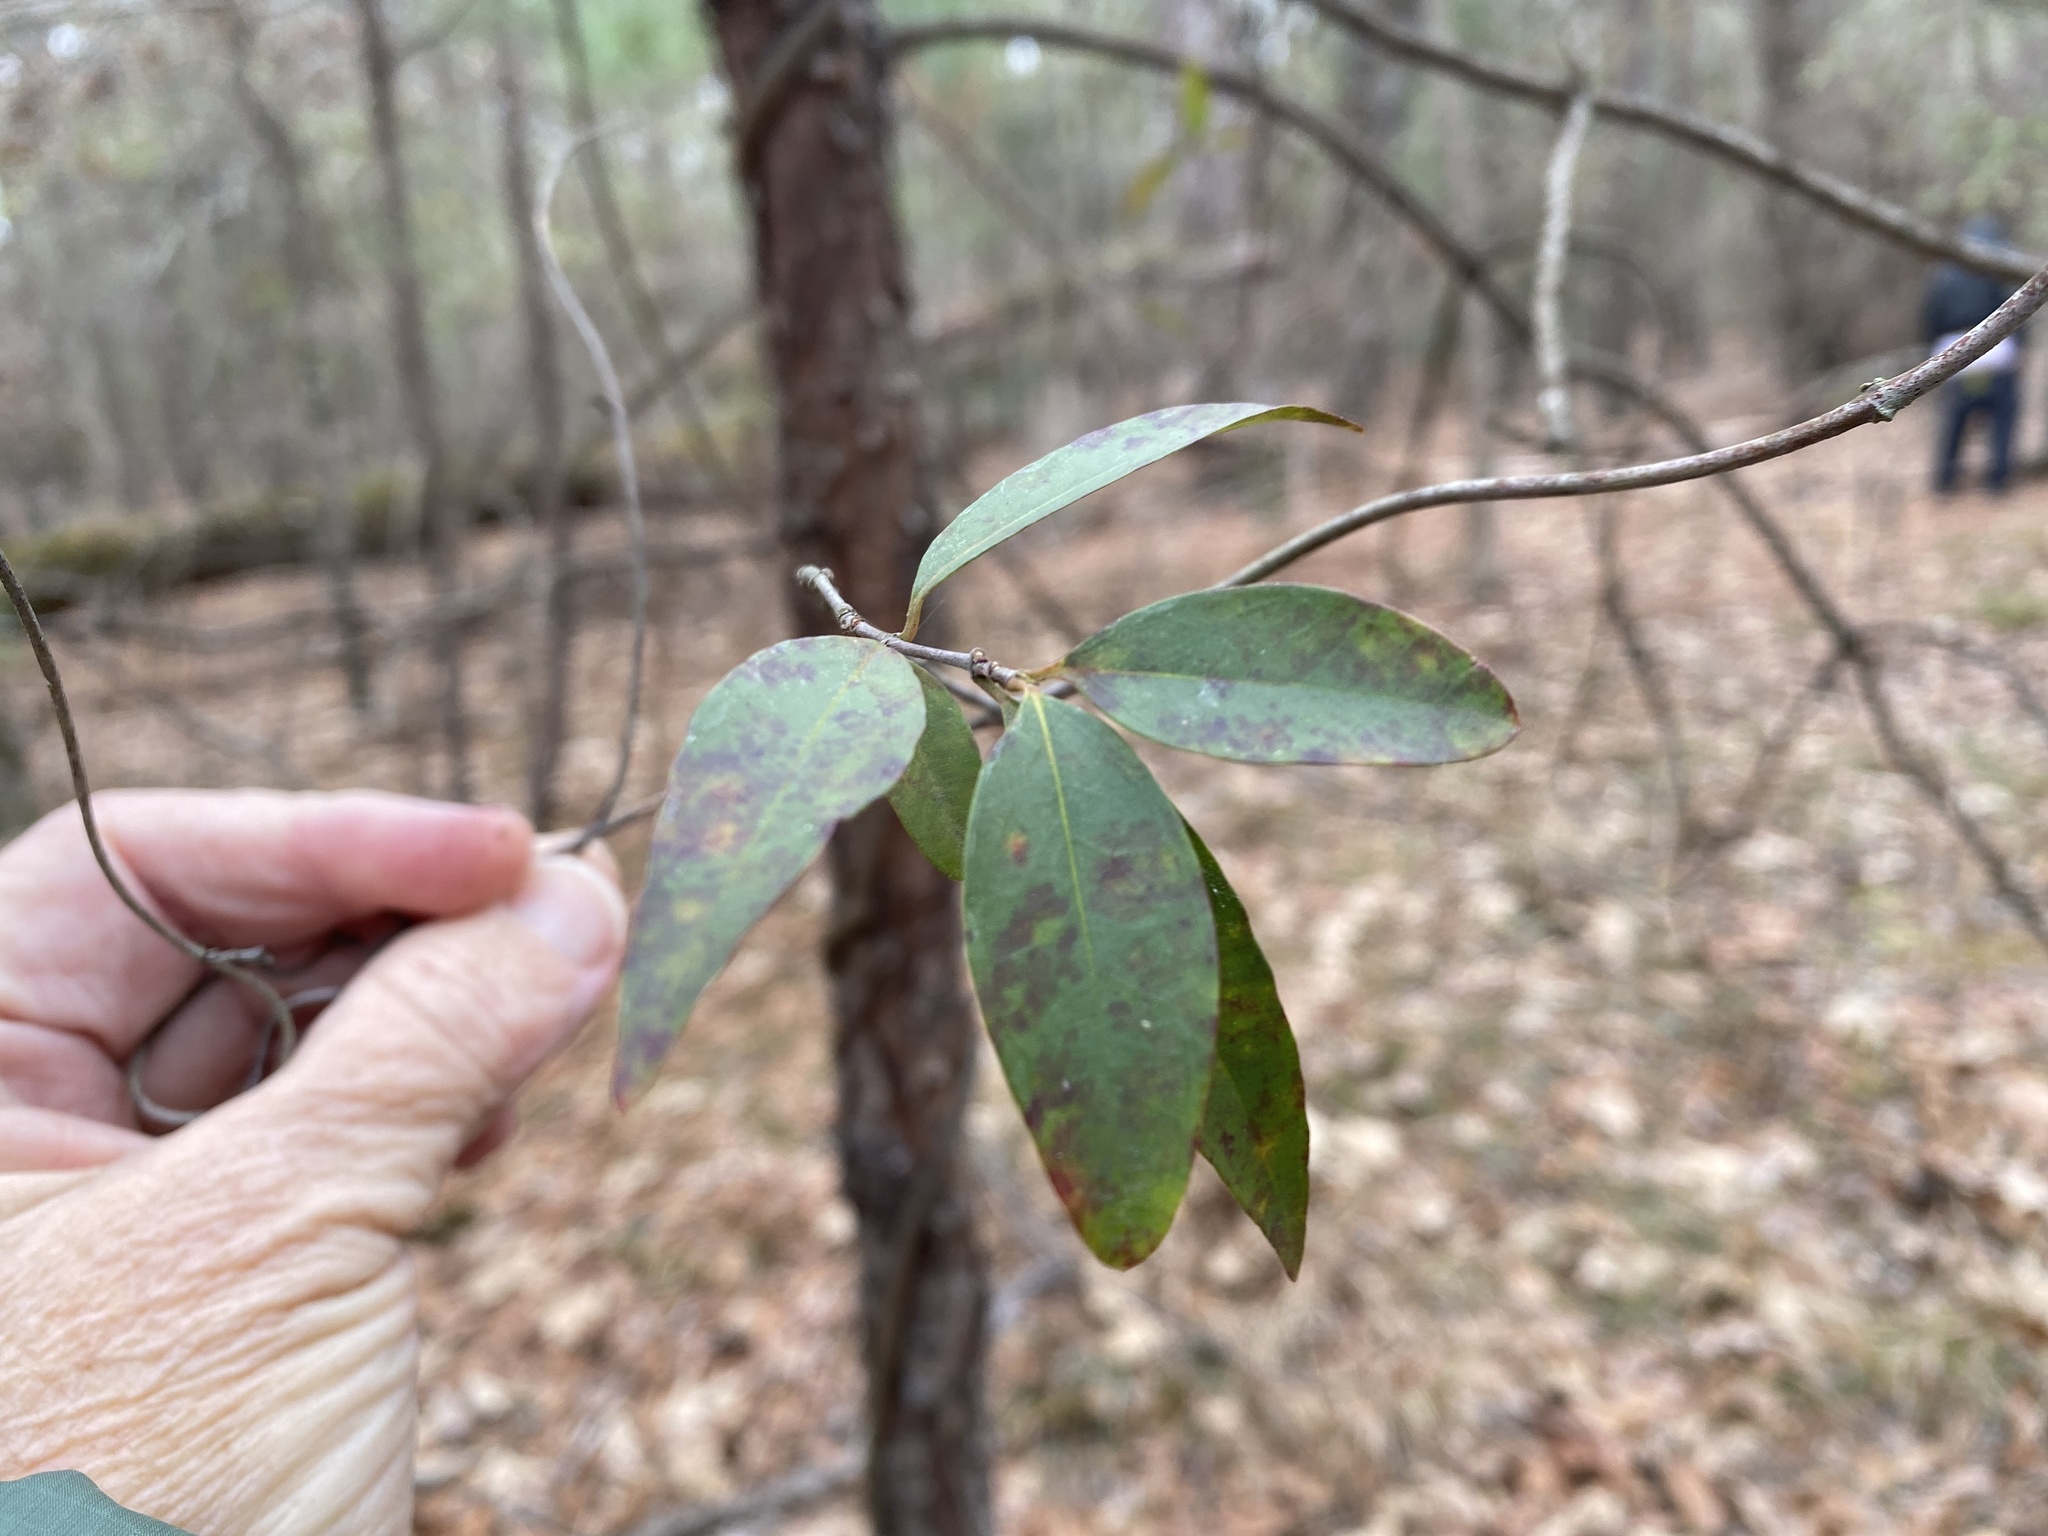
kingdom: Plantae
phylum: Tracheophyta
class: Magnoliopsida
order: Gentianales
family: Gelsemiaceae
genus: Gelsemium
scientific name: Gelsemium sempervirens
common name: Carolina-jasmine
